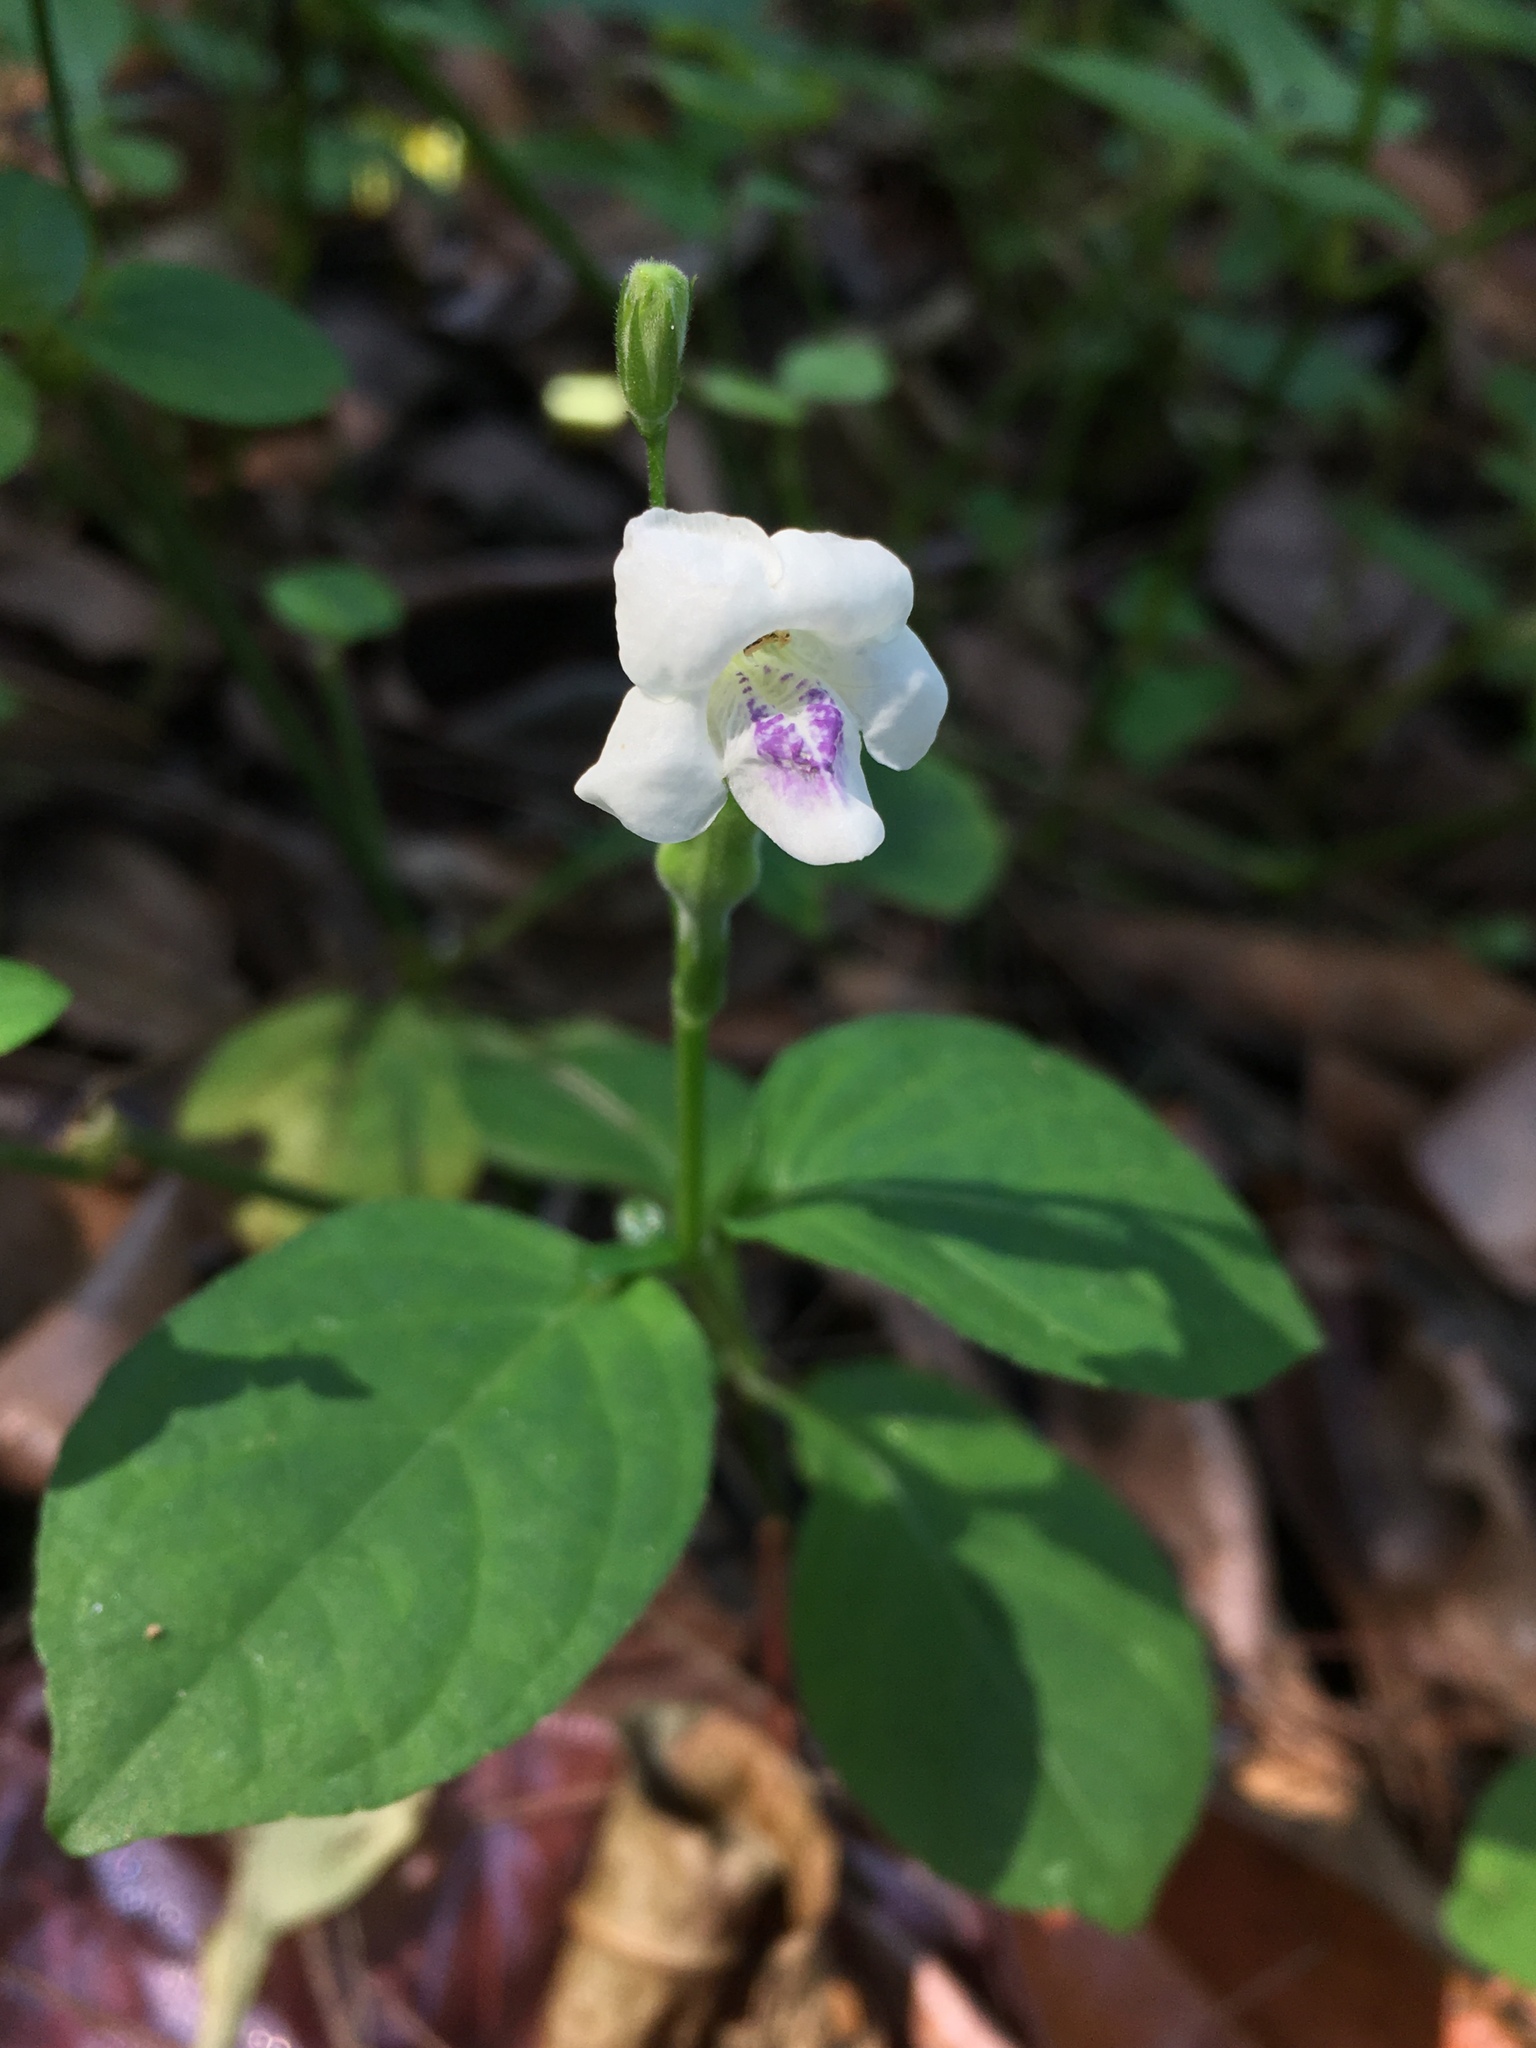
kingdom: Plantae
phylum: Tracheophyta
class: Magnoliopsida
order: Lamiales
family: Acanthaceae
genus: Asystasia
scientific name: Asystasia intrusa
